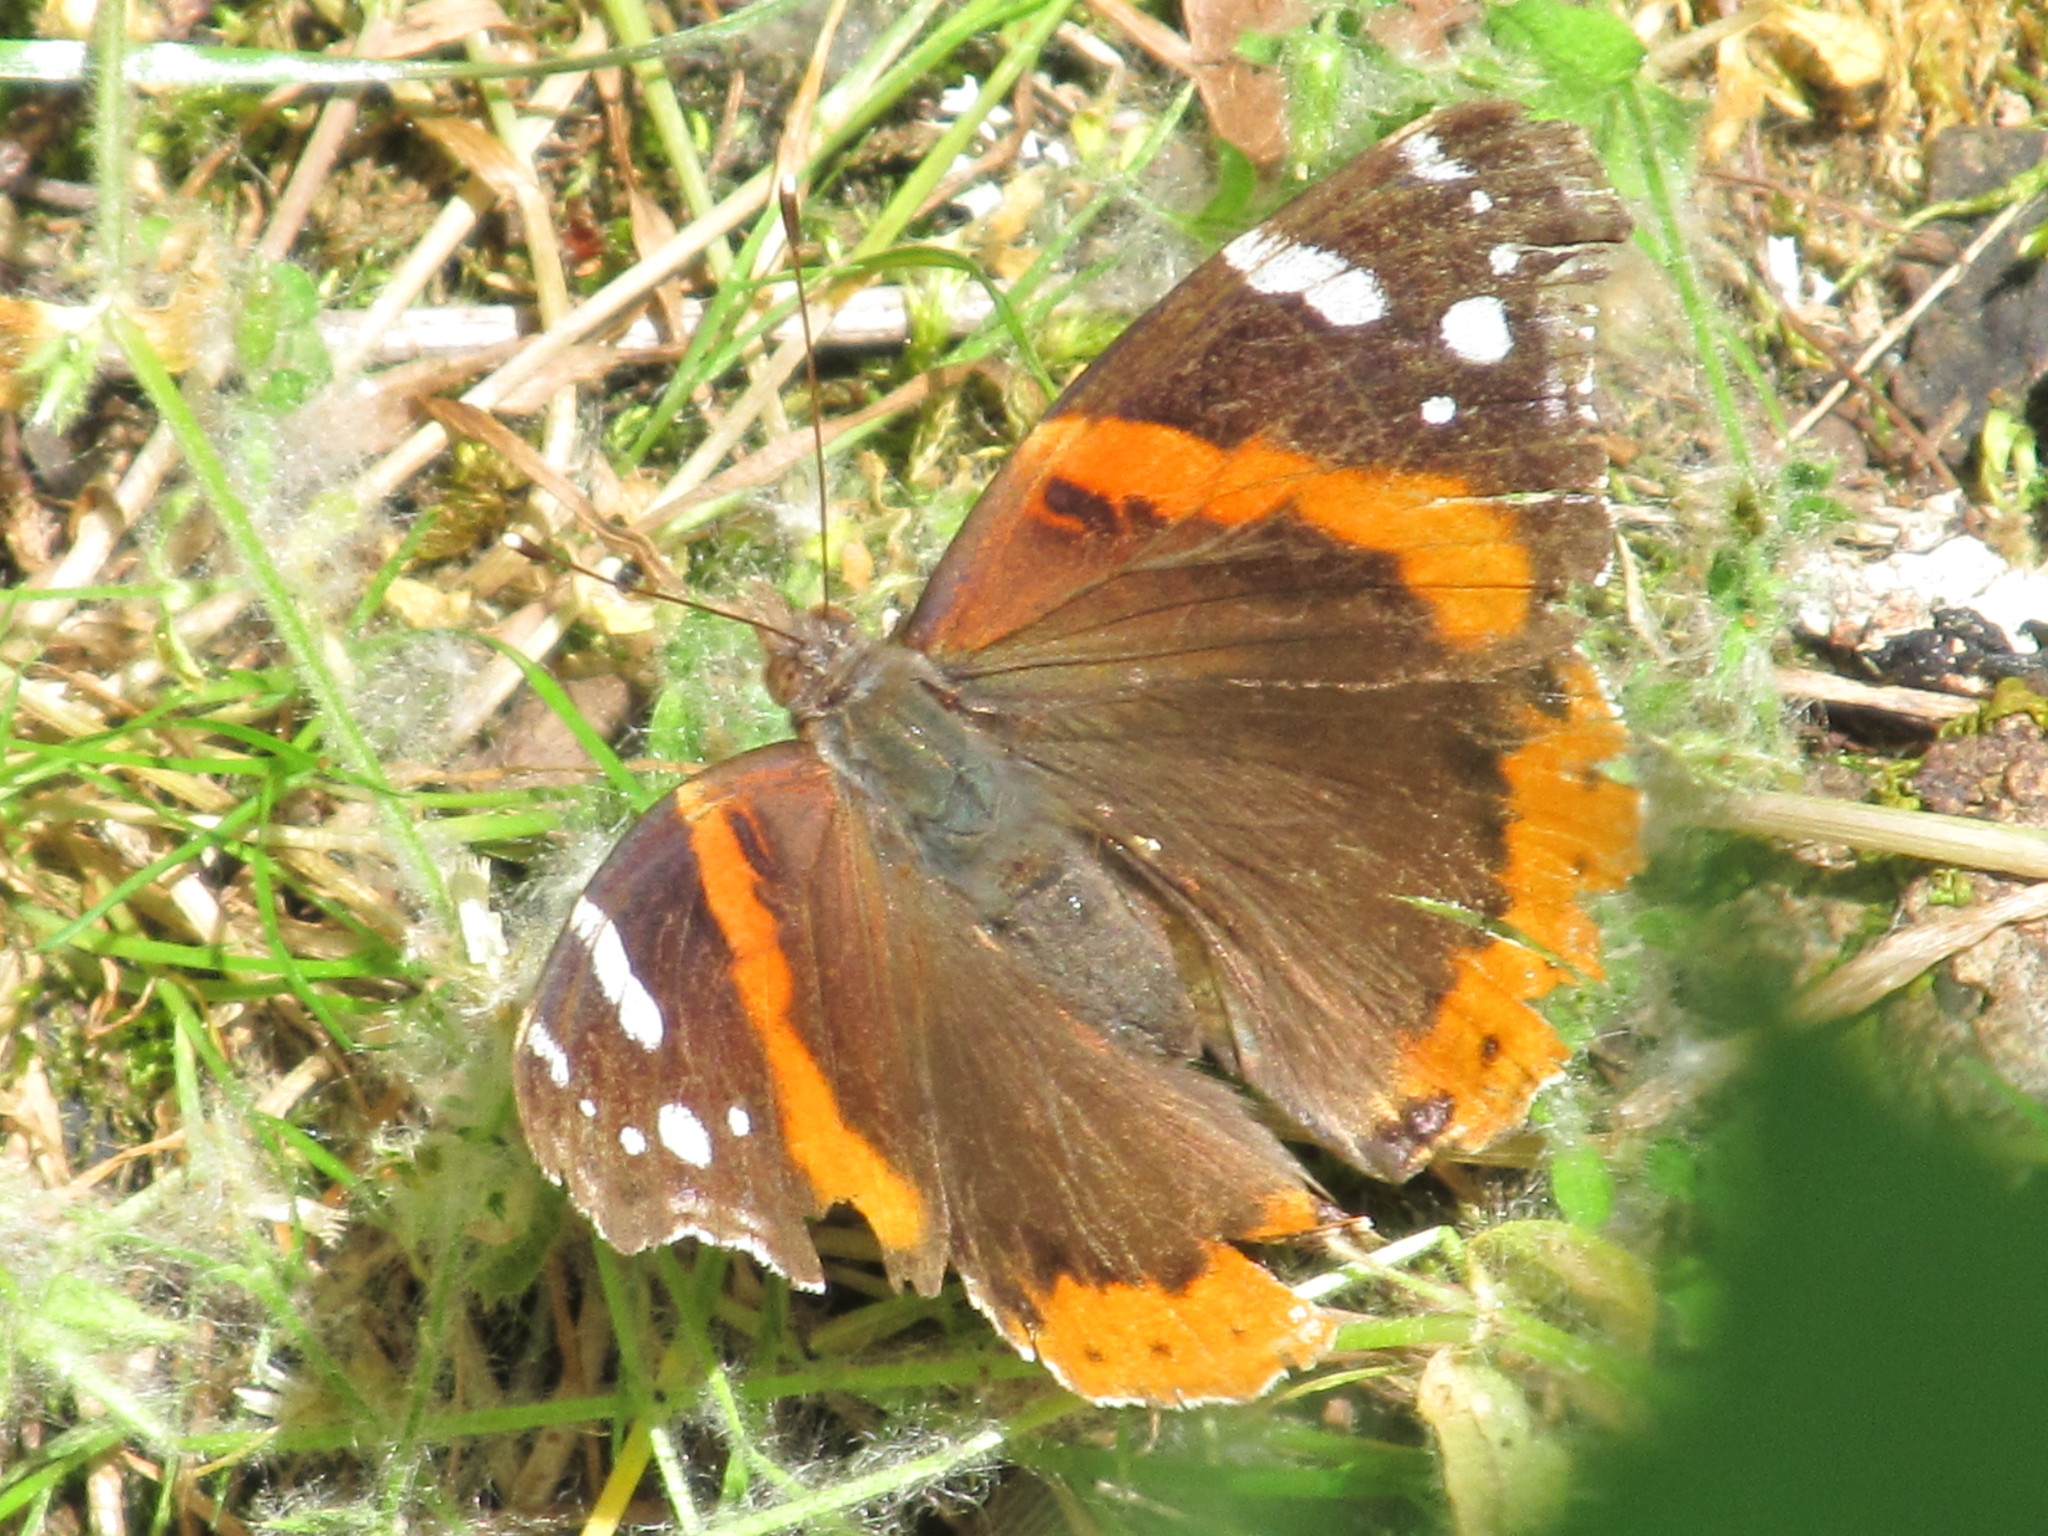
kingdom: Animalia
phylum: Arthropoda
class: Insecta
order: Lepidoptera
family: Nymphalidae
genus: Vanessa
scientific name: Vanessa atalanta
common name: Red admiral
